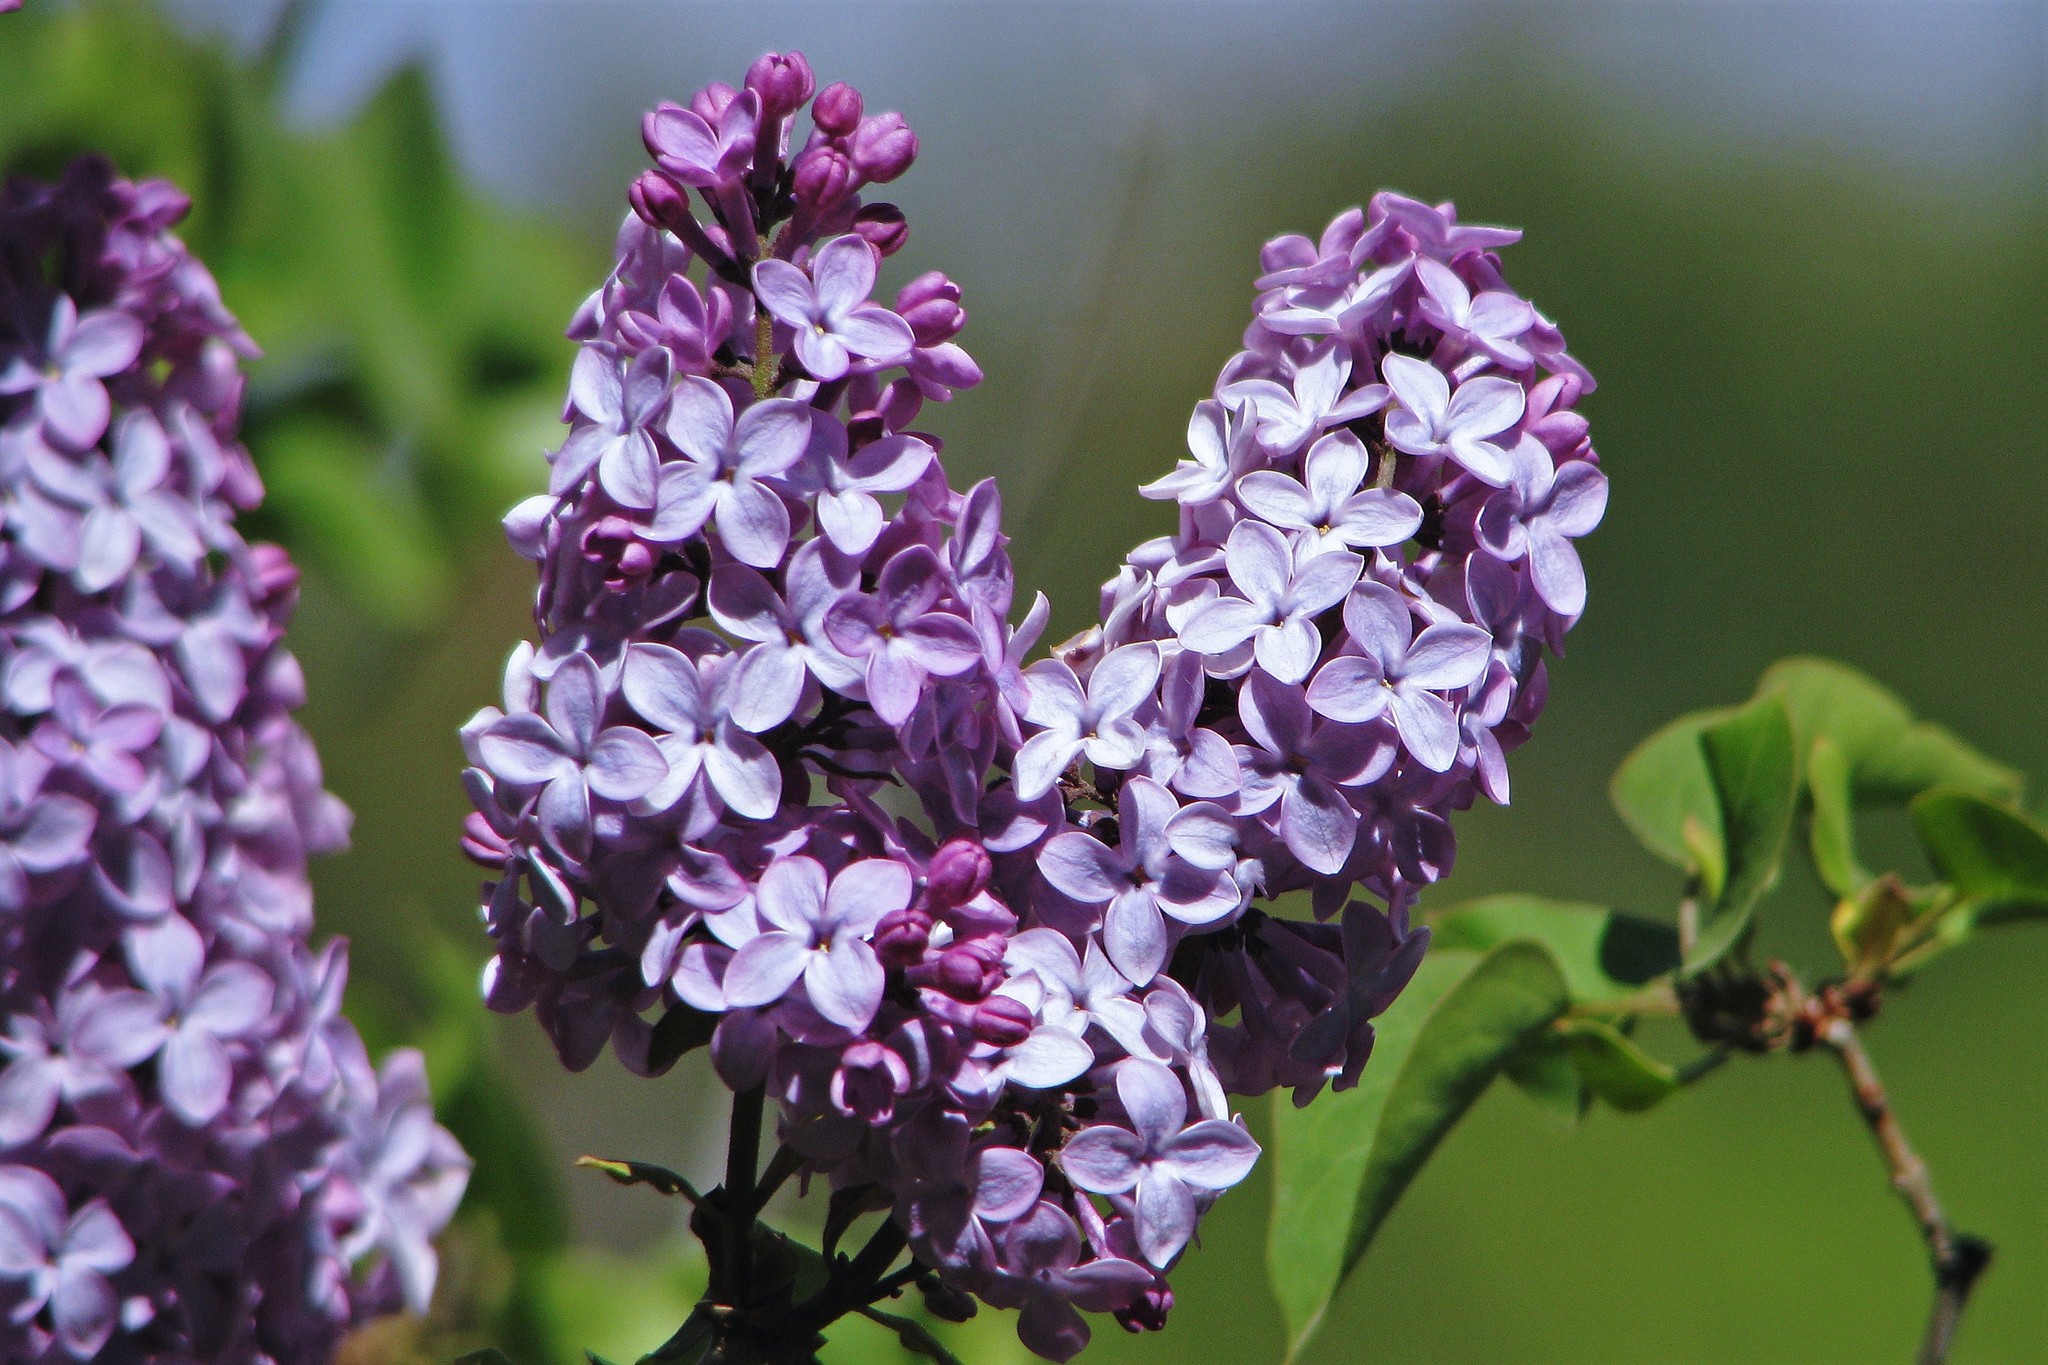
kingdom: Plantae
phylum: Tracheophyta
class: Magnoliopsida
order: Lamiales
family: Oleaceae
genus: Syringa
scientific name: Syringa vulgaris
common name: Common lilac
